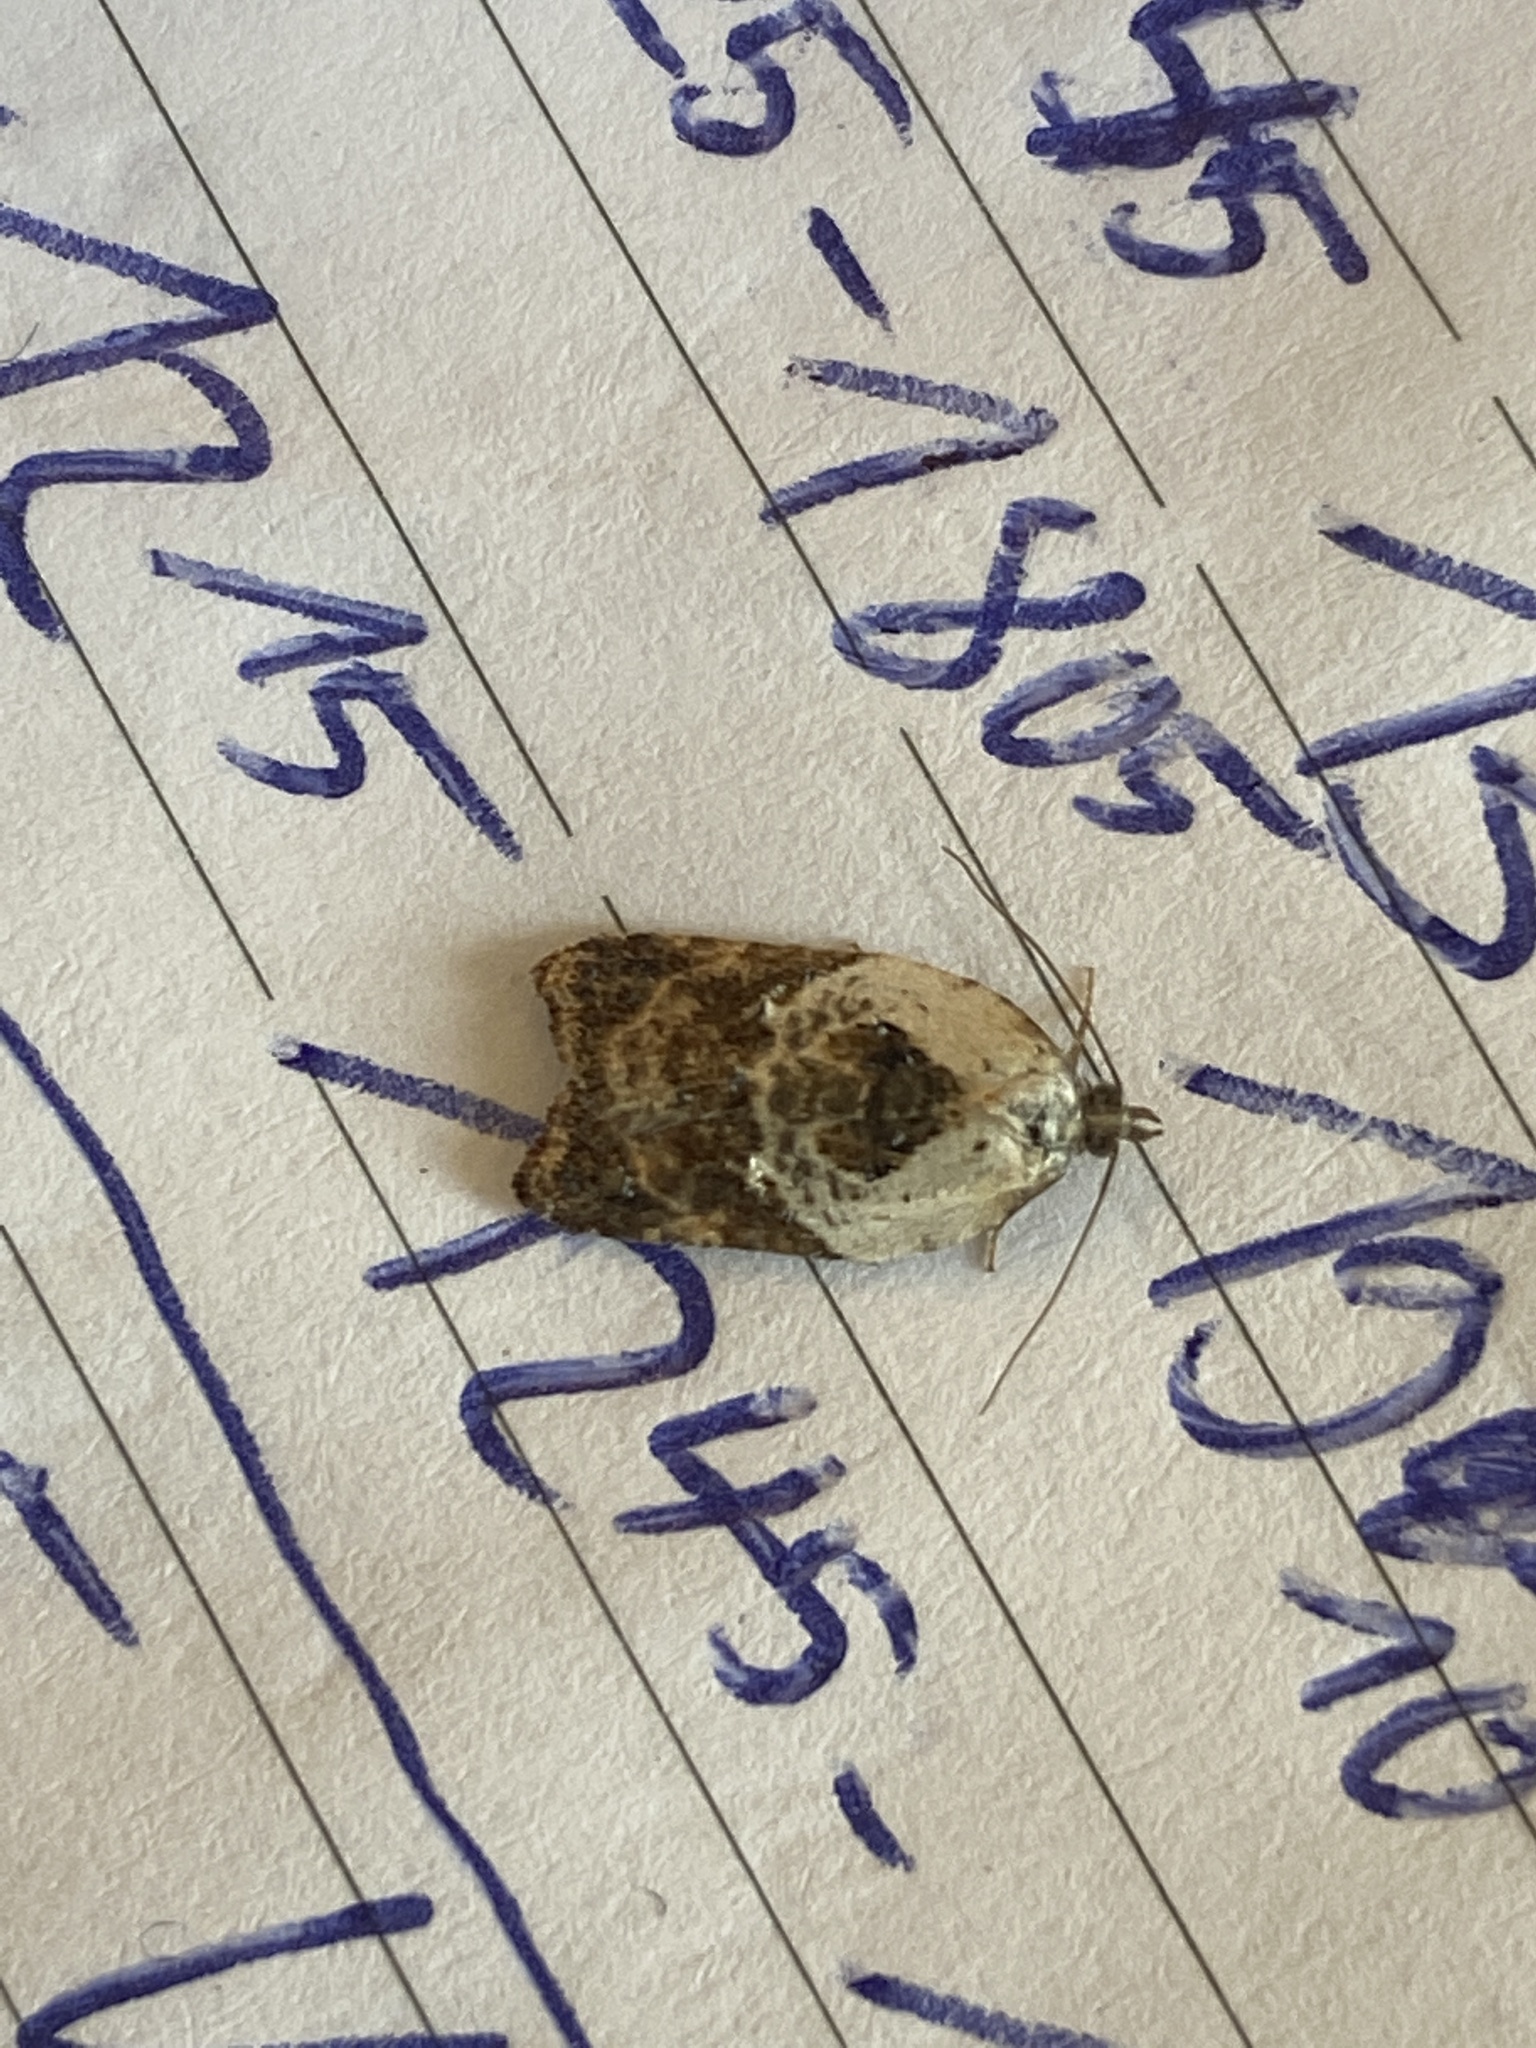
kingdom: Animalia
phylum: Arthropoda
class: Insecta
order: Lepidoptera
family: Tortricidae
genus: Acleris
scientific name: Acleris variegana
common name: Garden rose tortrix
